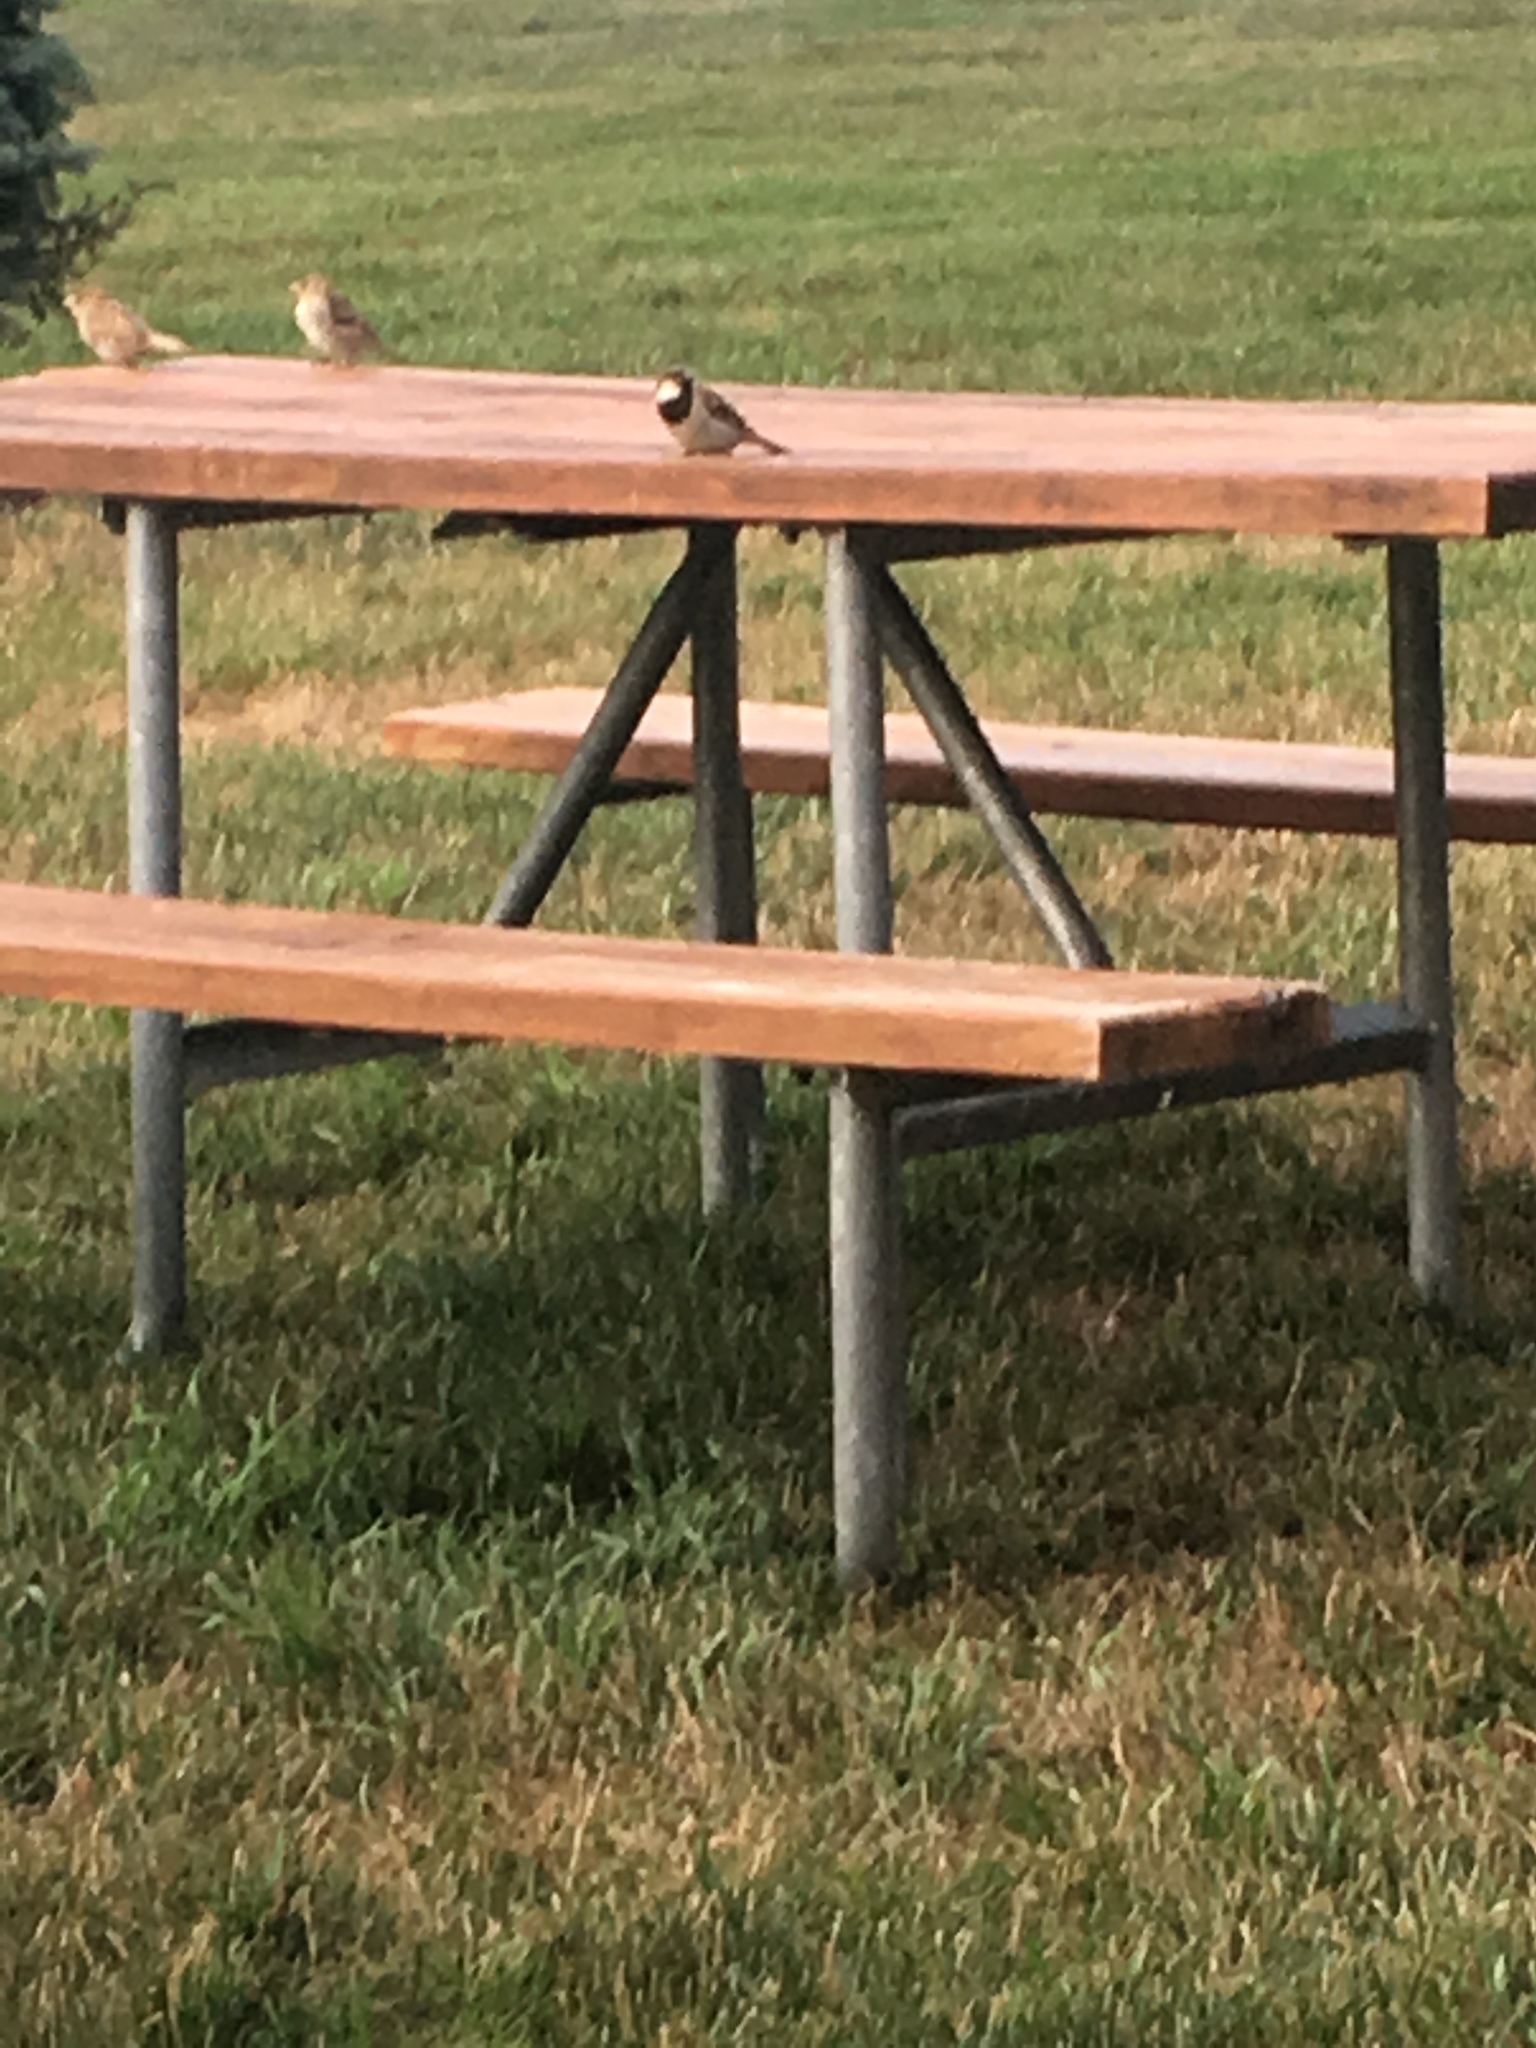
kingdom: Animalia
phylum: Chordata
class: Aves
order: Passeriformes
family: Passeridae
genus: Passer
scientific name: Passer domesticus
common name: House sparrow
